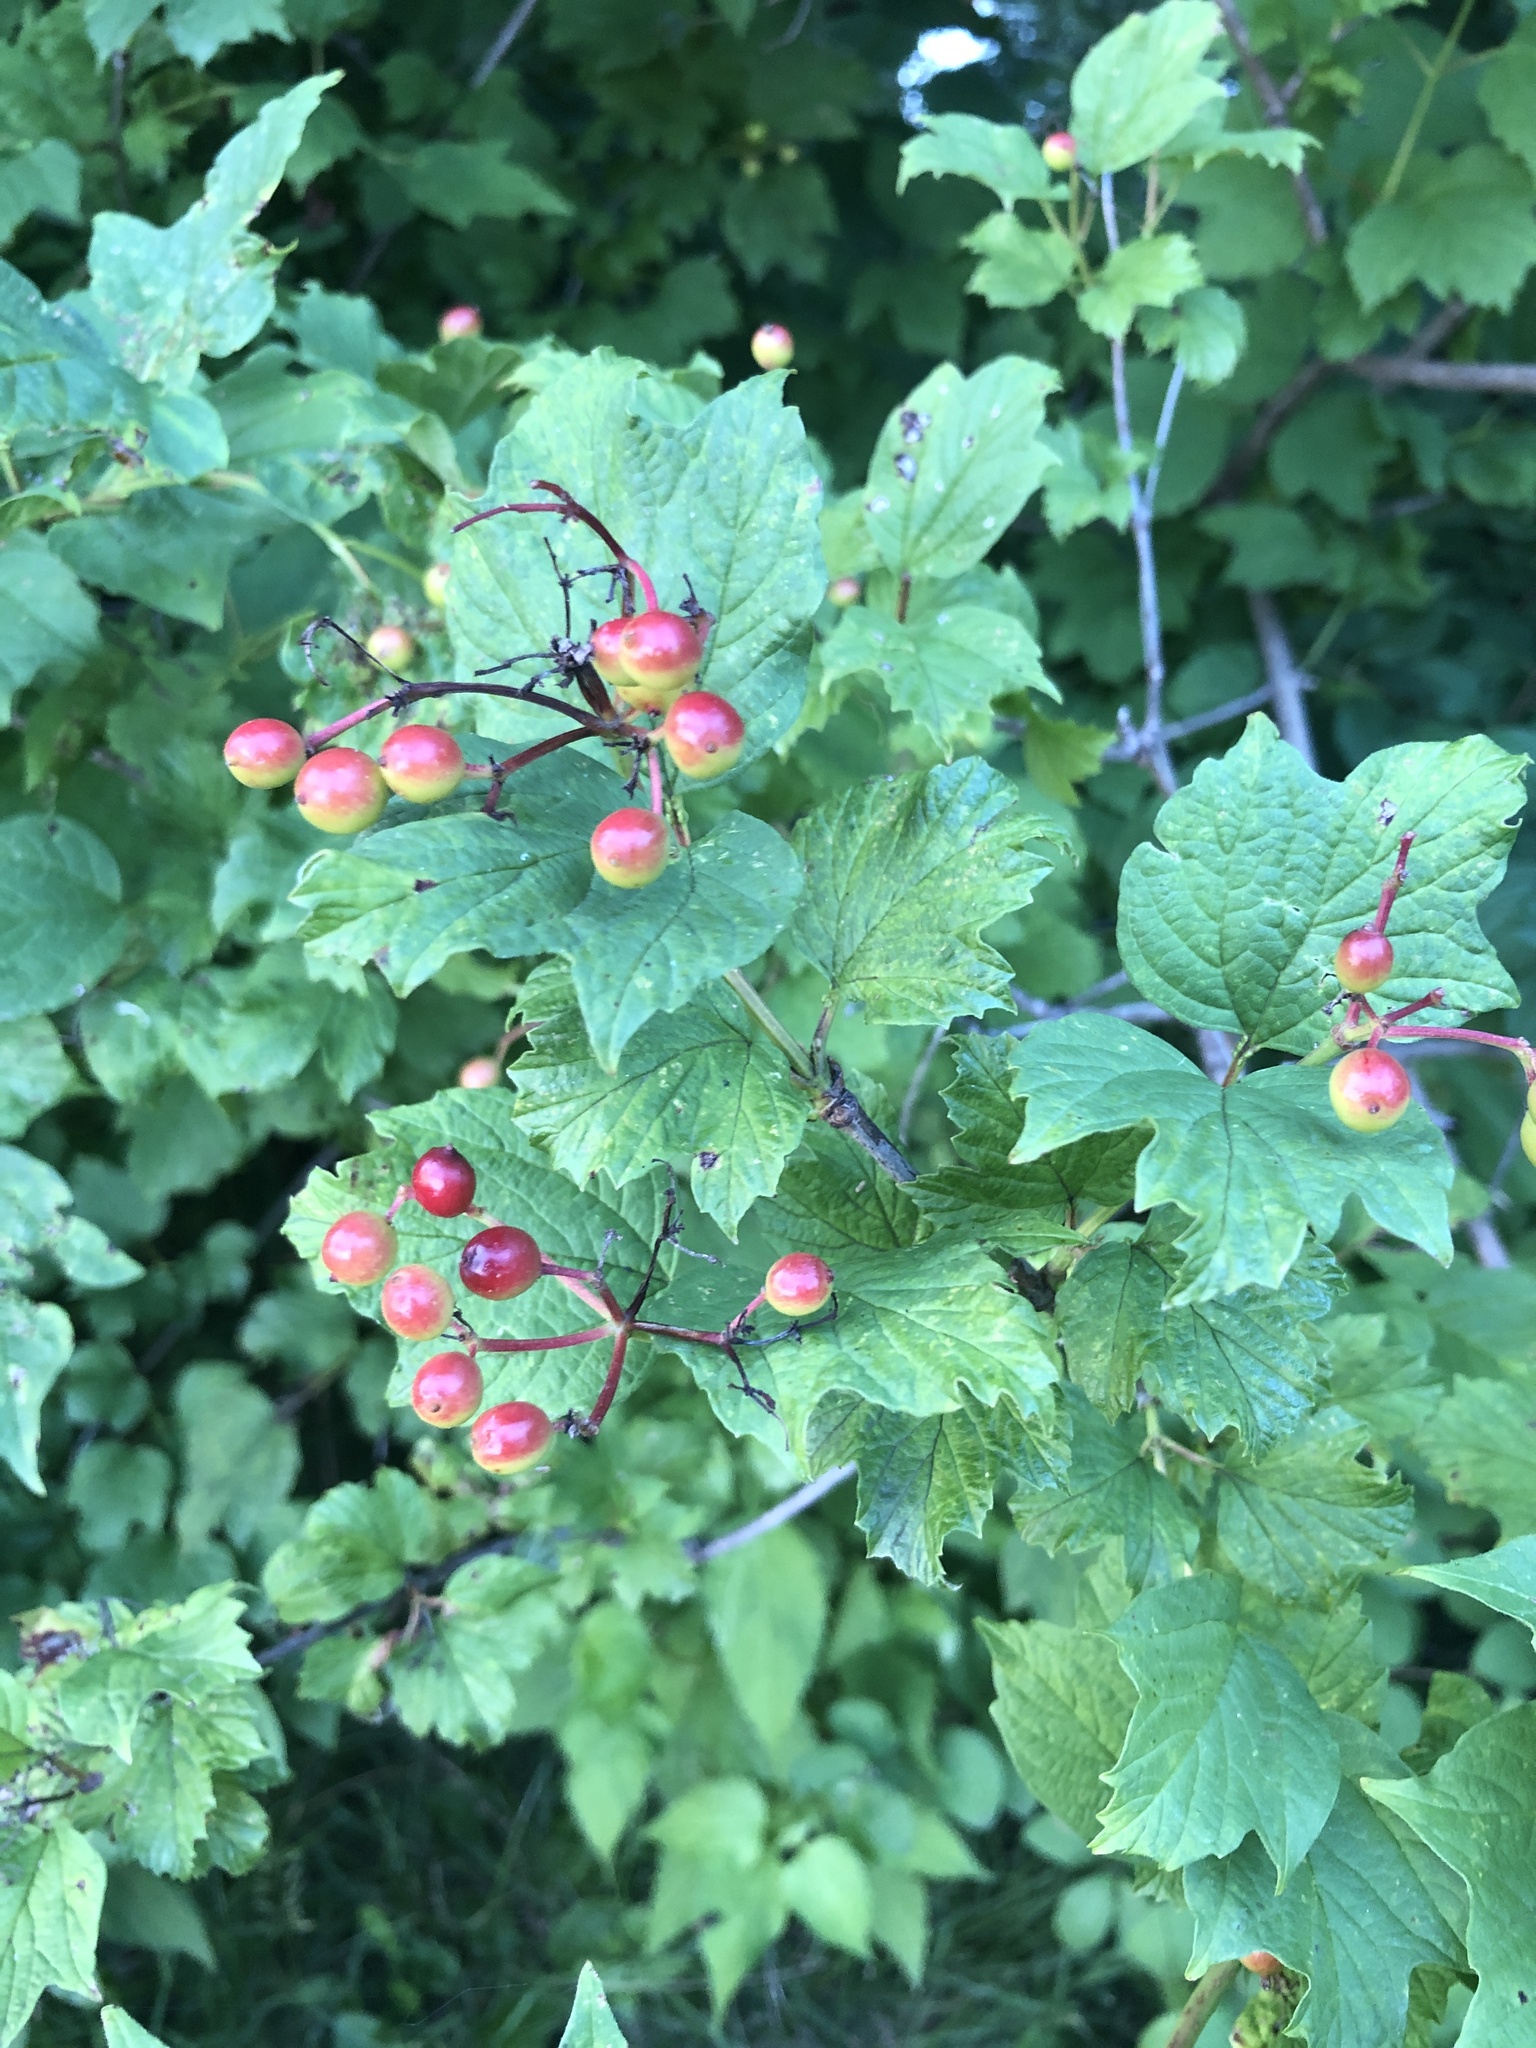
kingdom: Plantae
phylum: Tracheophyta
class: Magnoliopsida
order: Dipsacales
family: Viburnaceae
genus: Viburnum
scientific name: Viburnum opulus
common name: Guelder-rose
